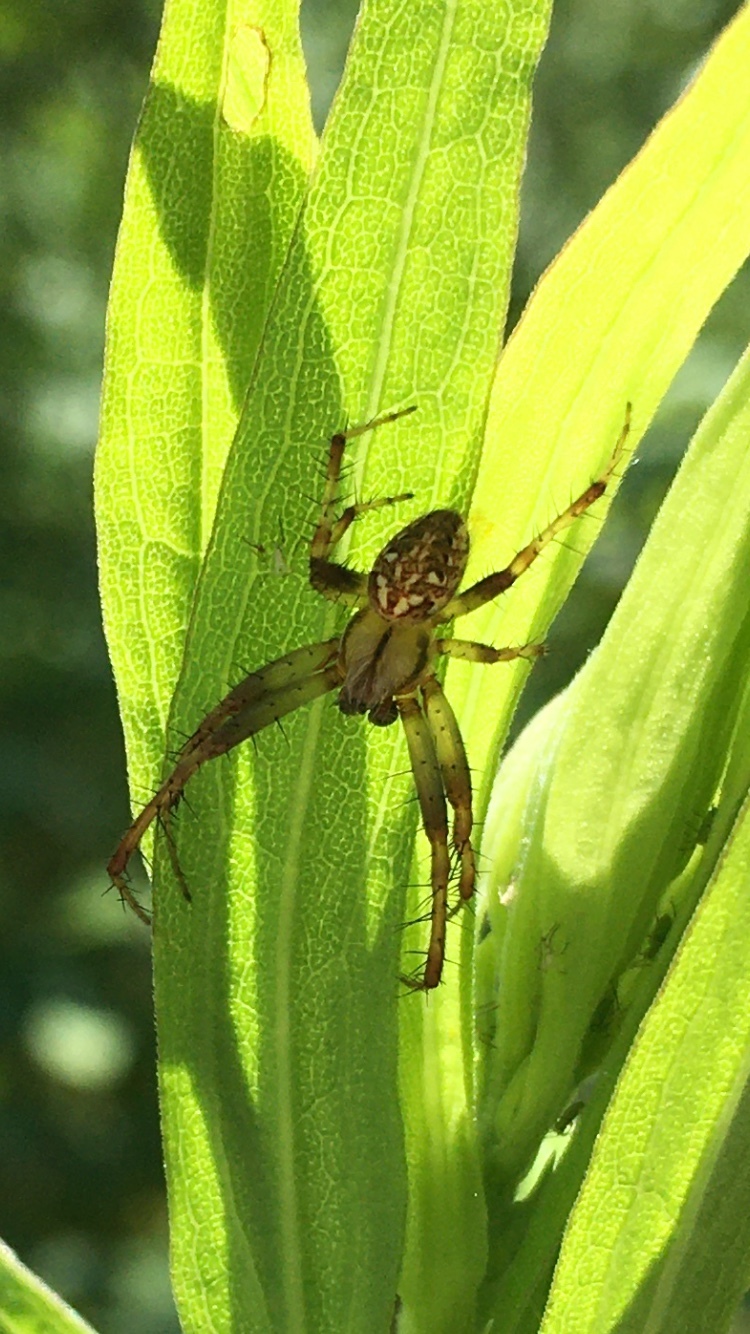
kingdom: Animalia
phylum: Arthropoda
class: Arachnida
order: Araneae
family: Araneidae
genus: Neoscona
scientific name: Neoscona arabesca
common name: Orb weavers
